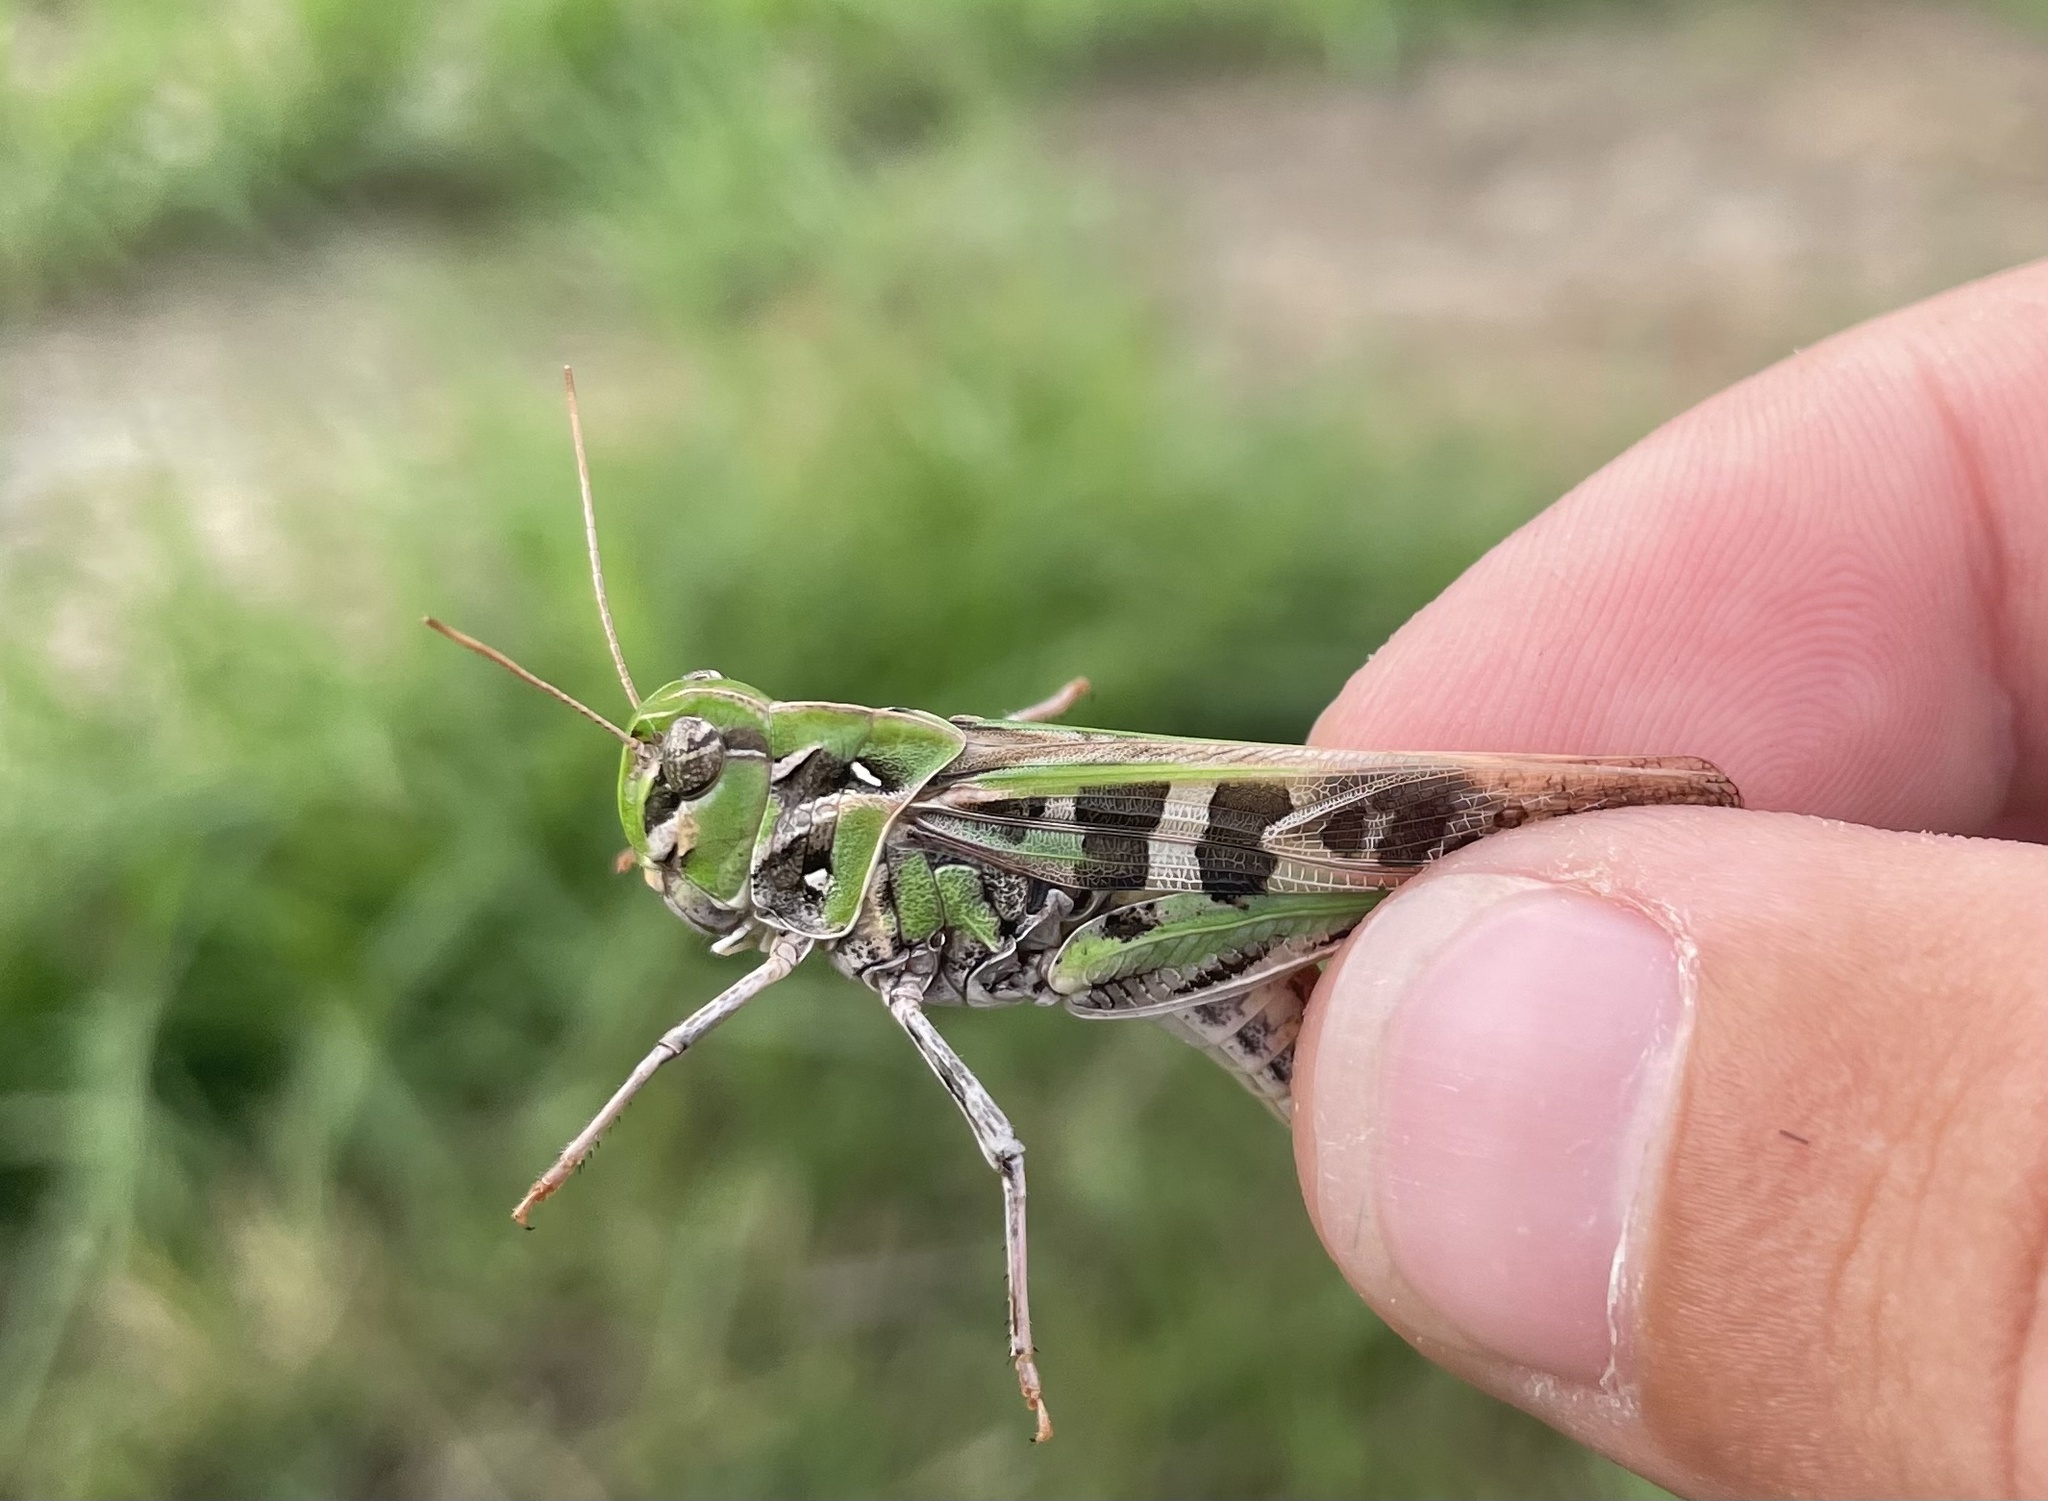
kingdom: Animalia
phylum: Arthropoda
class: Insecta
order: Orthoptera
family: Acrididae
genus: Oedaleus
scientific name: Oedaleus decorus
